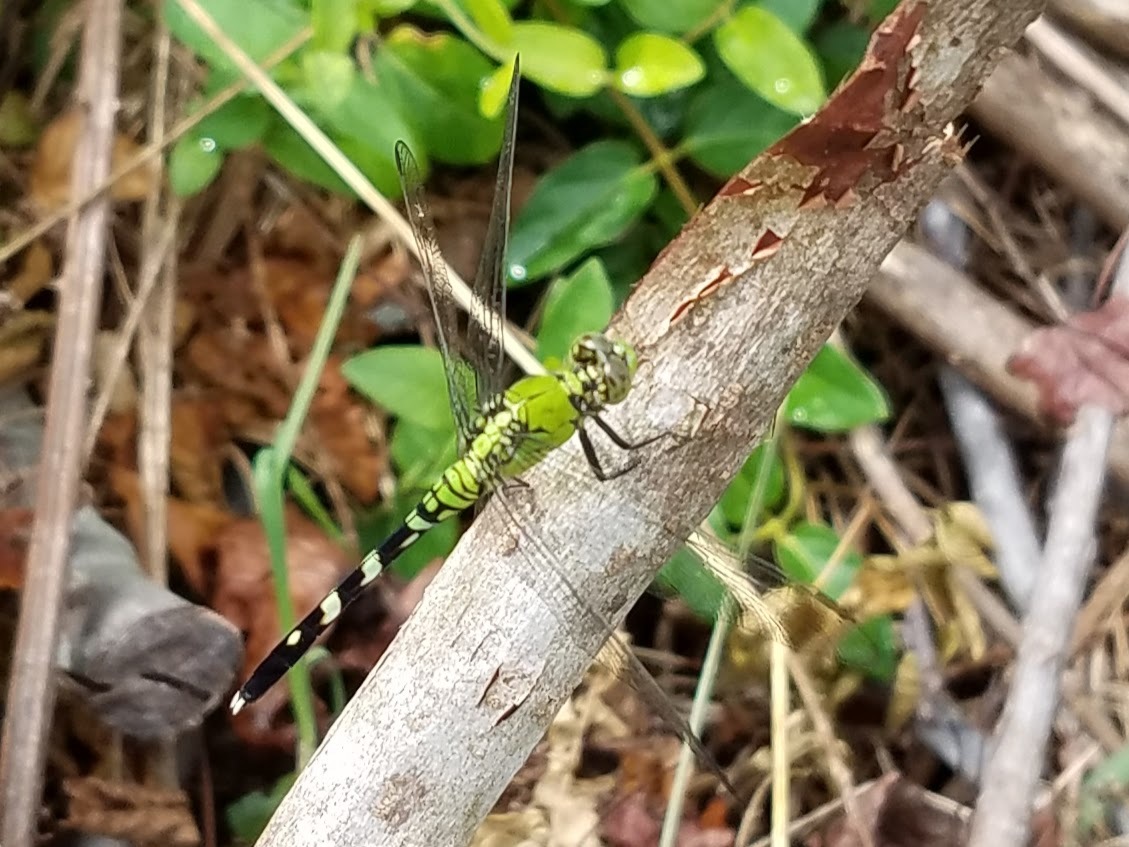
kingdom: Animalia
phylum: Arthropoda
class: Insecta
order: Odonata
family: Libellulidae
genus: Erythemis
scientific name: Erythemis simplicicollis
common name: Eastern pondhawk
